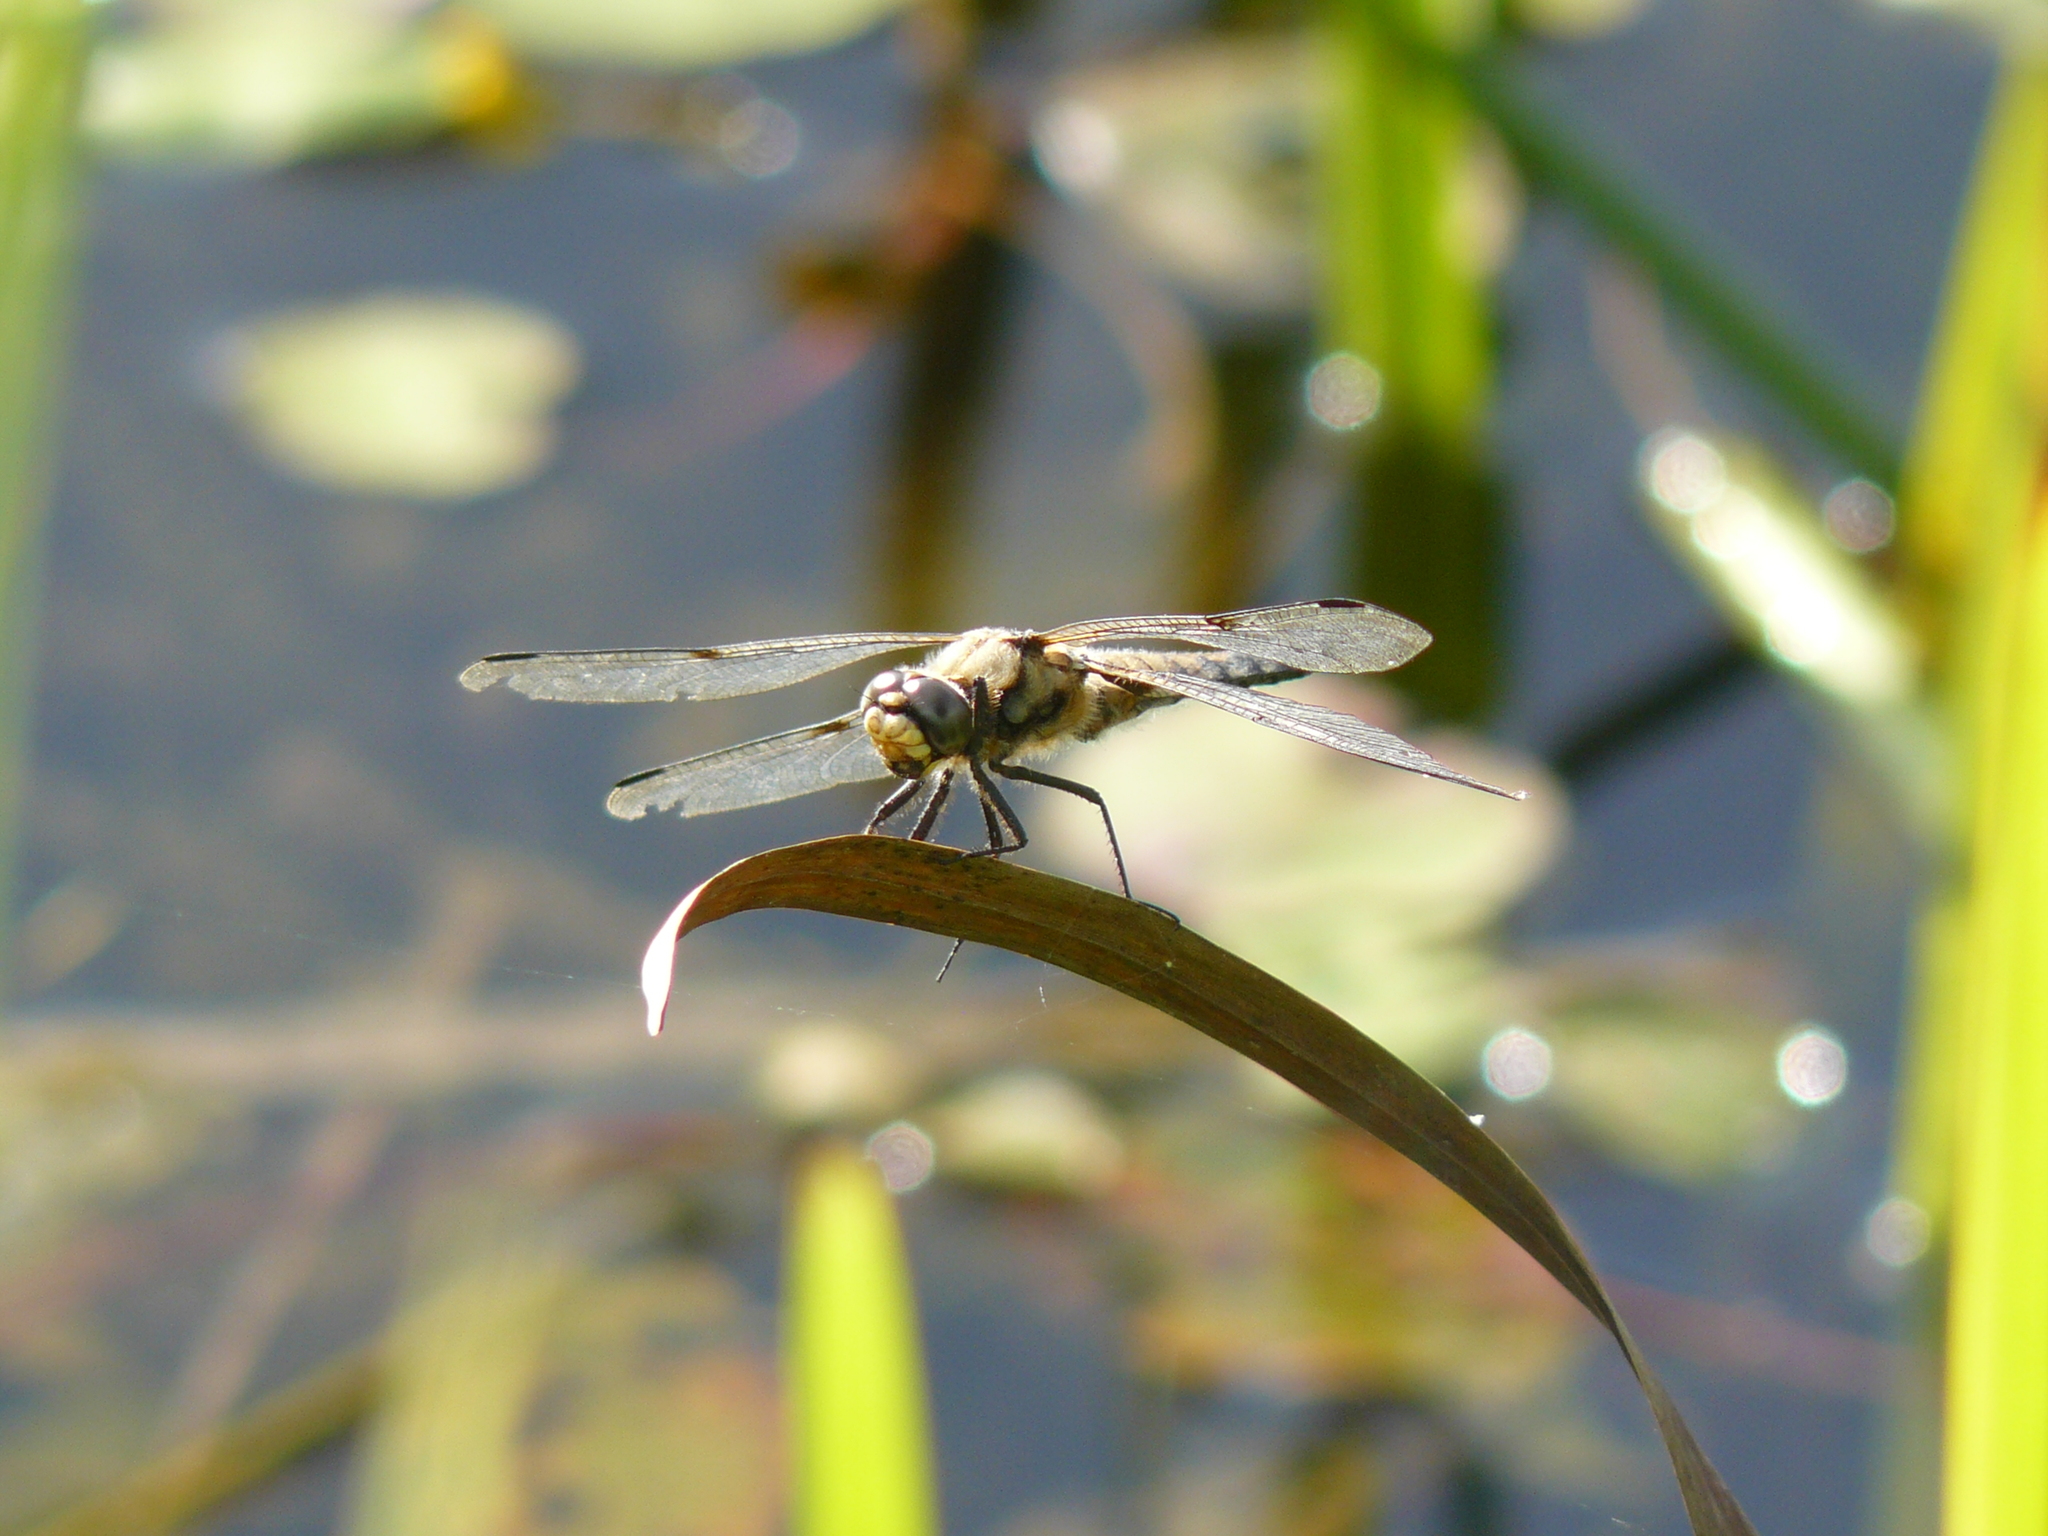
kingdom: Animalia
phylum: Arthropoda
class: Insecta
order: Odonata
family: Libellulidae
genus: Libellula
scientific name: Libellula quadrimaculata
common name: Four-spotted chaser
